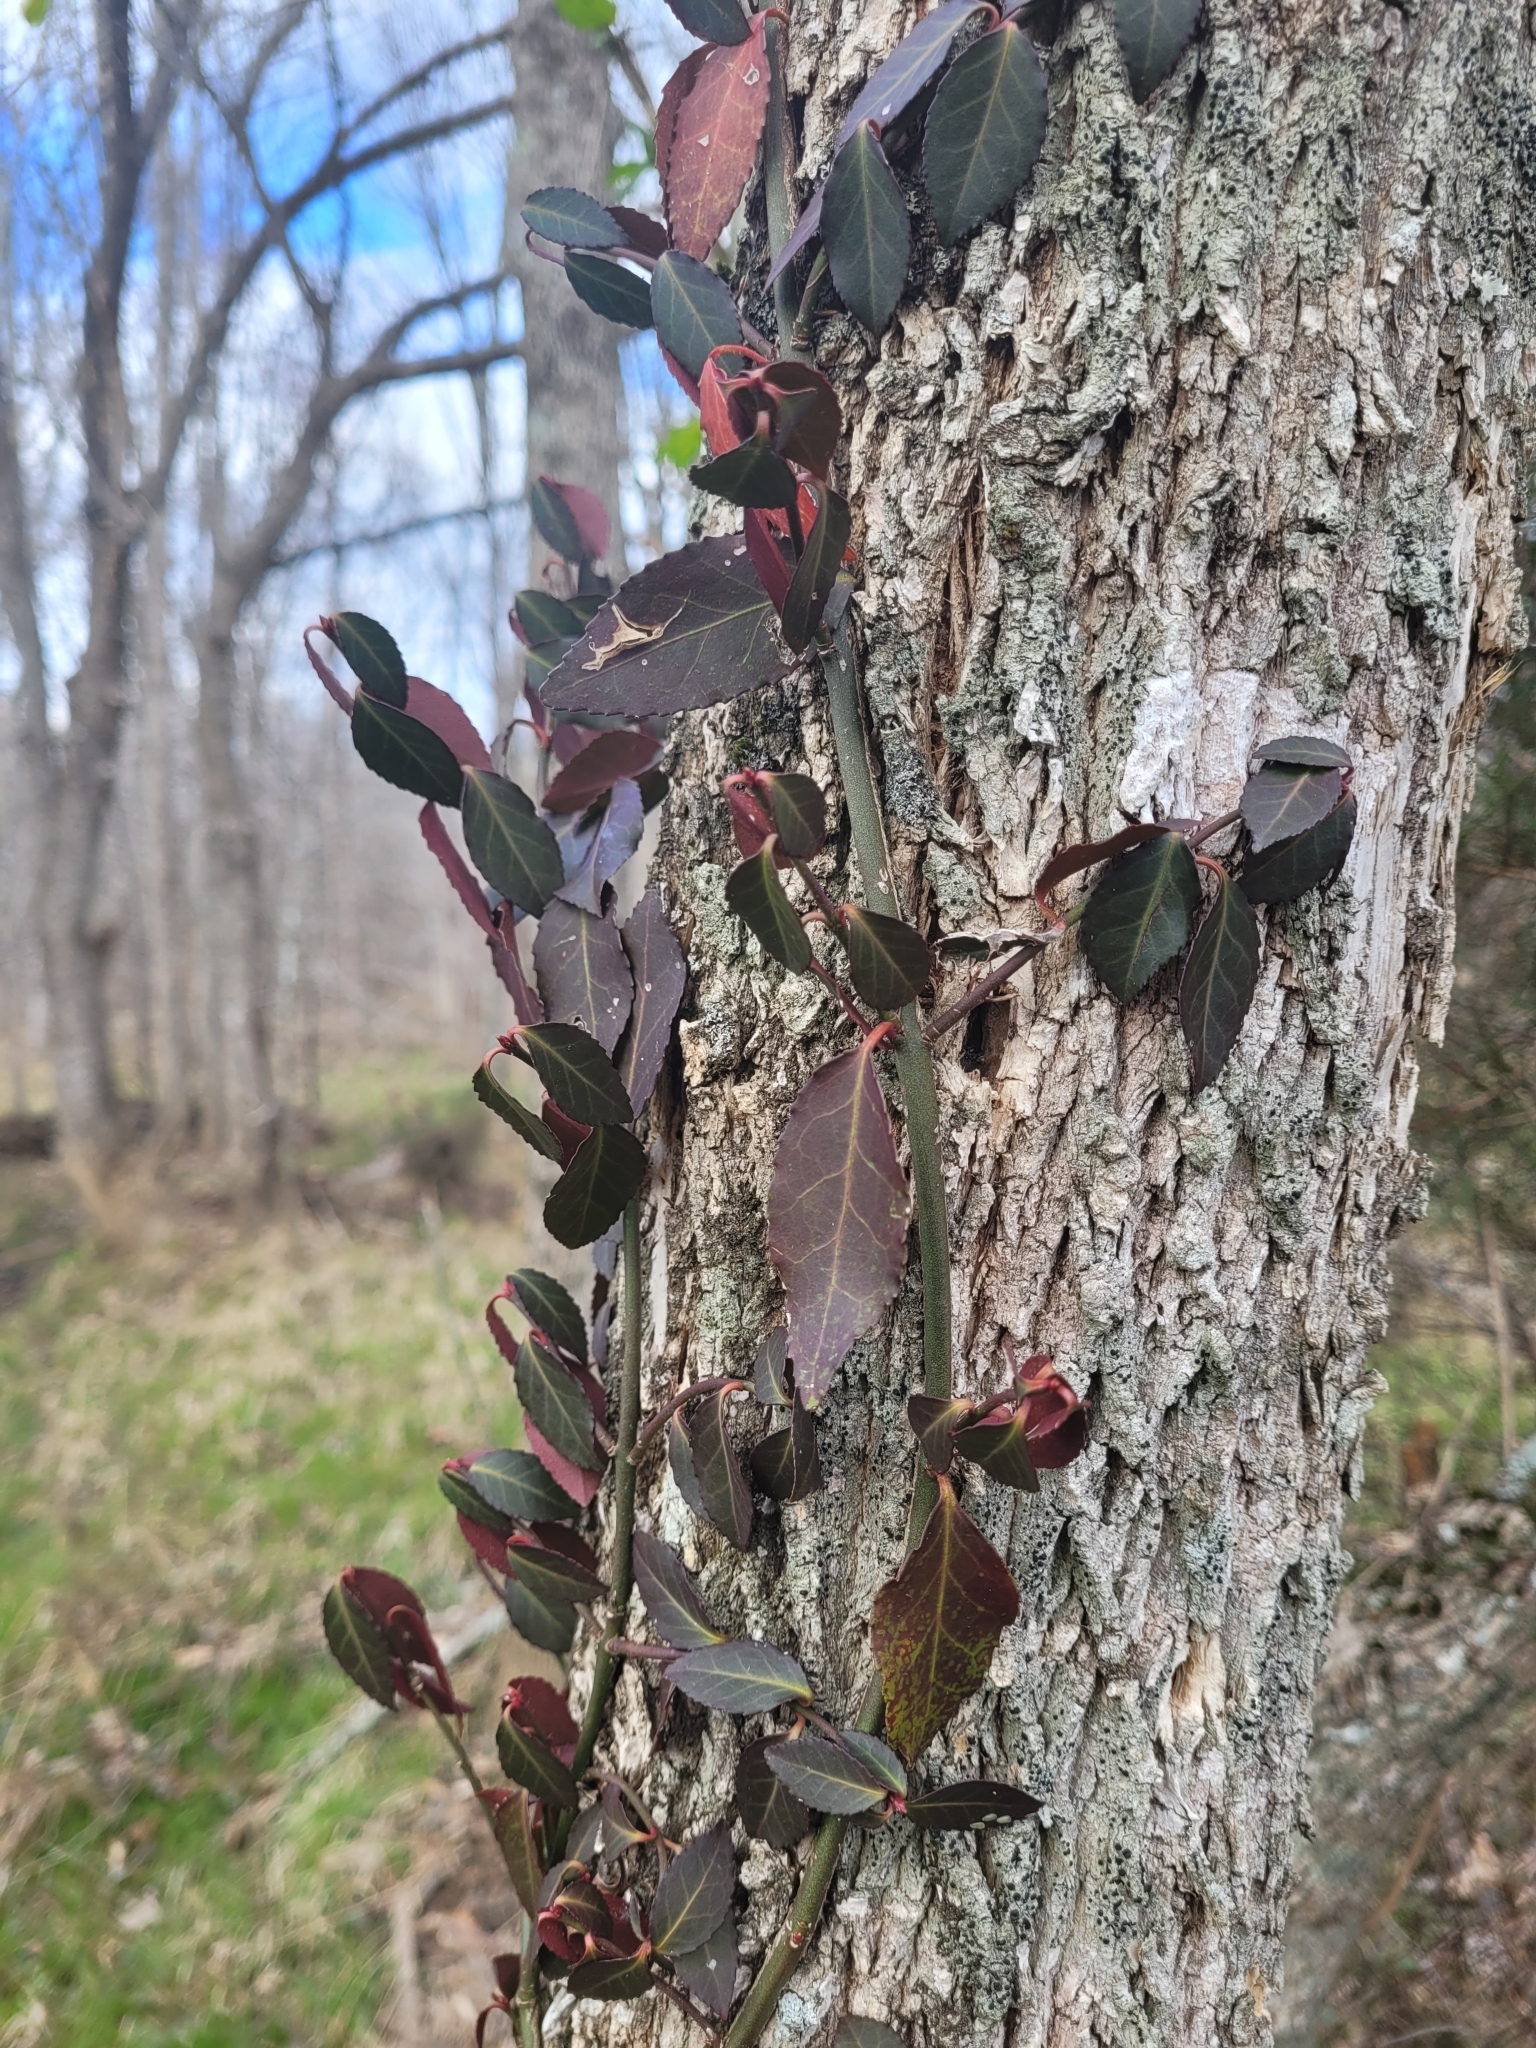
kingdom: Plantae
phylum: Tracheophyta
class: Magnoliopsida
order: Celastrales
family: Celastraceae
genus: Euonymus
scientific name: Euonymus fortunei
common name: Climbing euonymus
